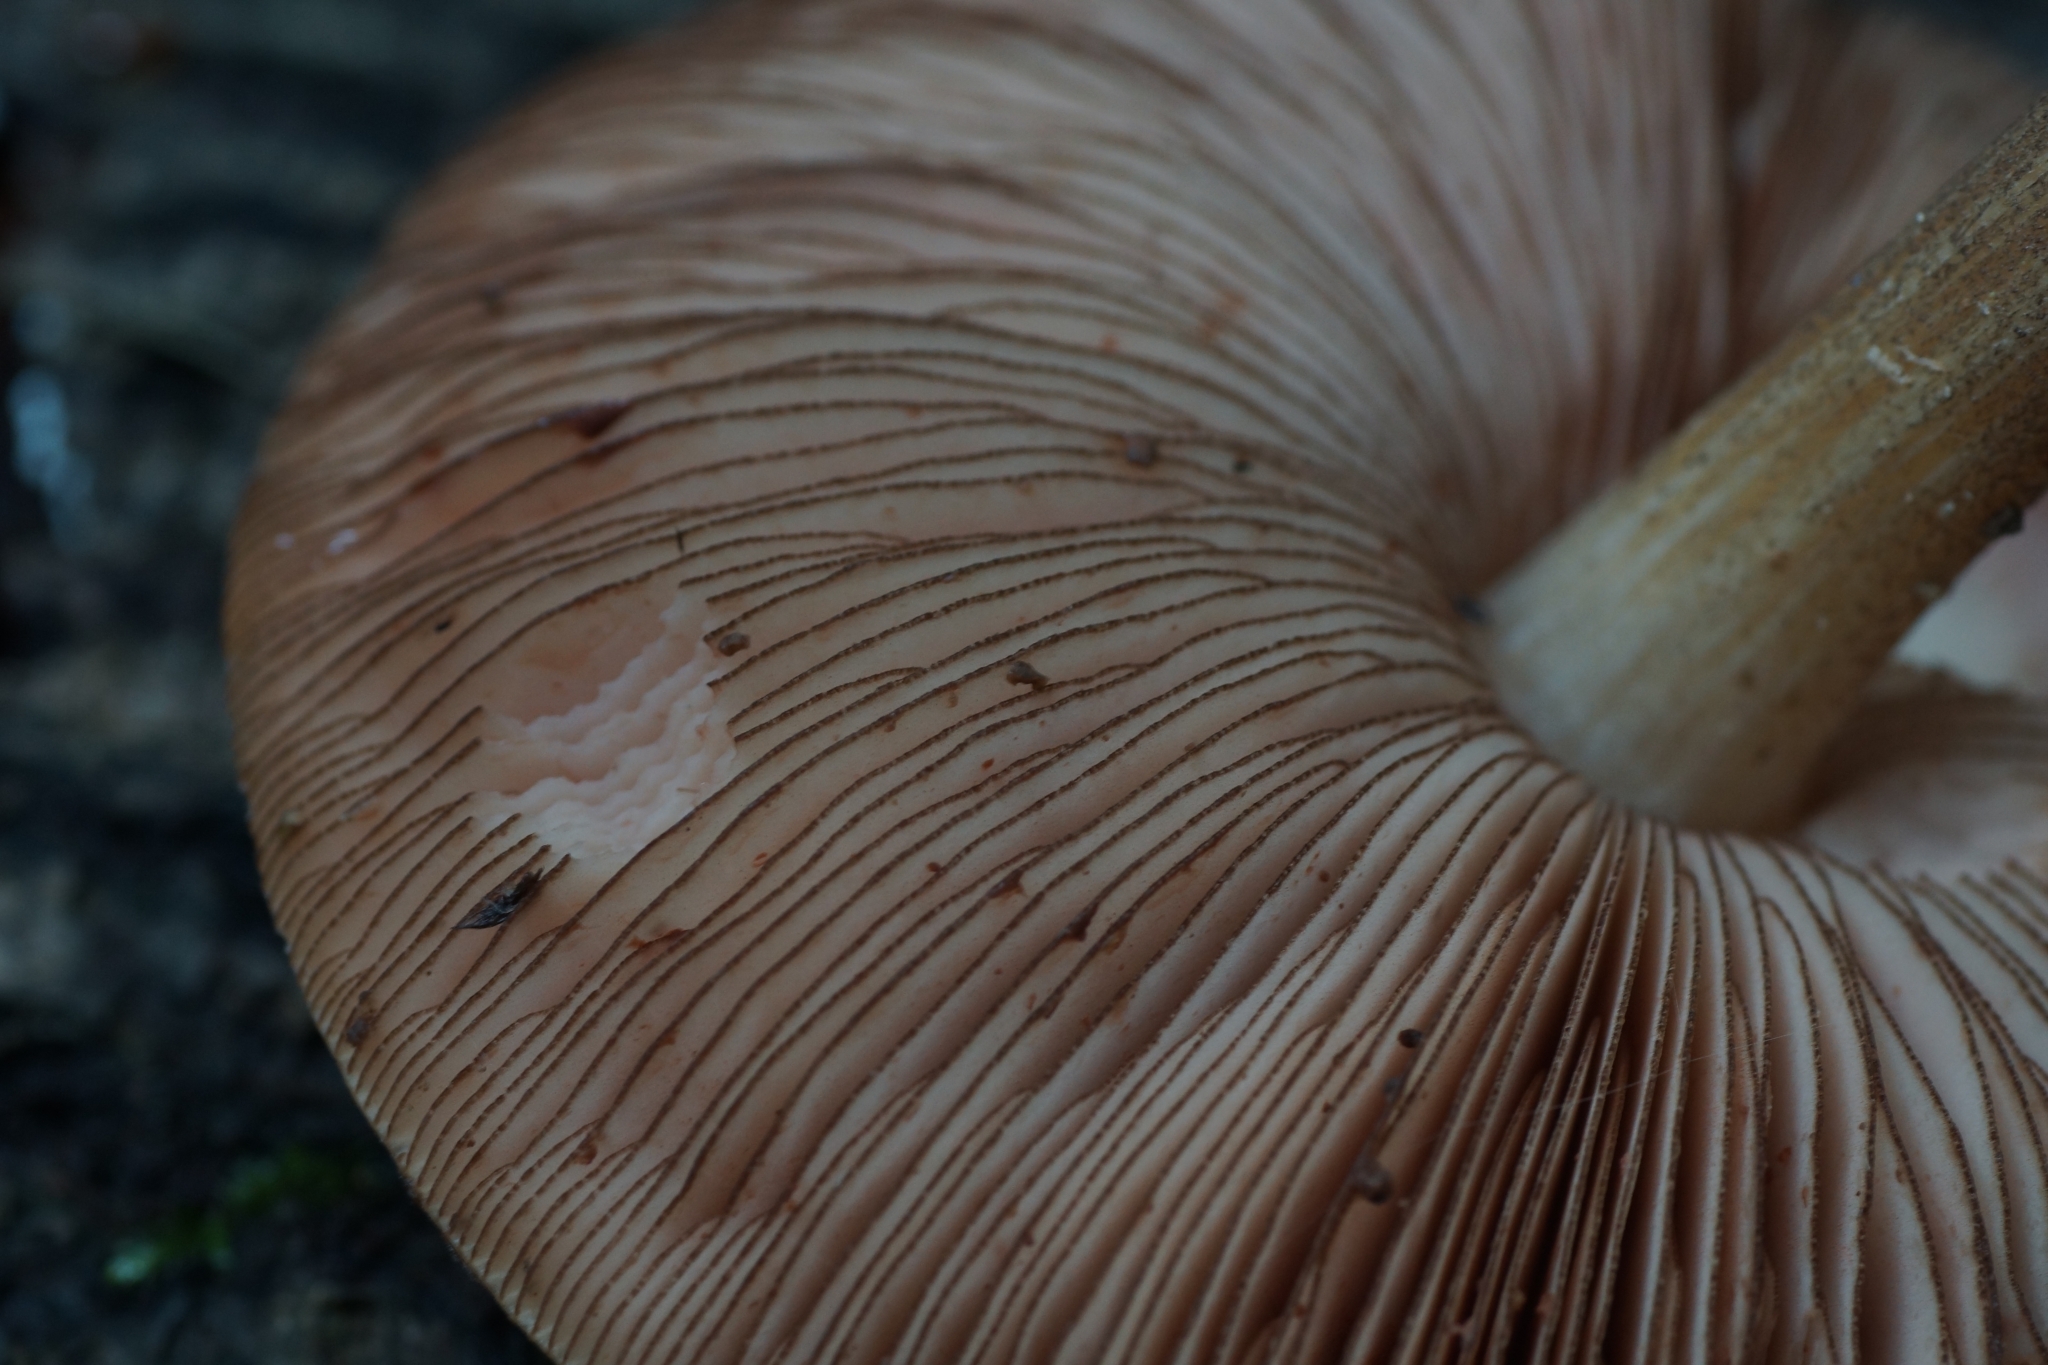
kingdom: Fungi
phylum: Basidiomycota
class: Agaricomycetes
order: Agaricales
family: Pluteaceae
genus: Pluteus
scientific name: Pluteus umbrosus
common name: Velvet shield
